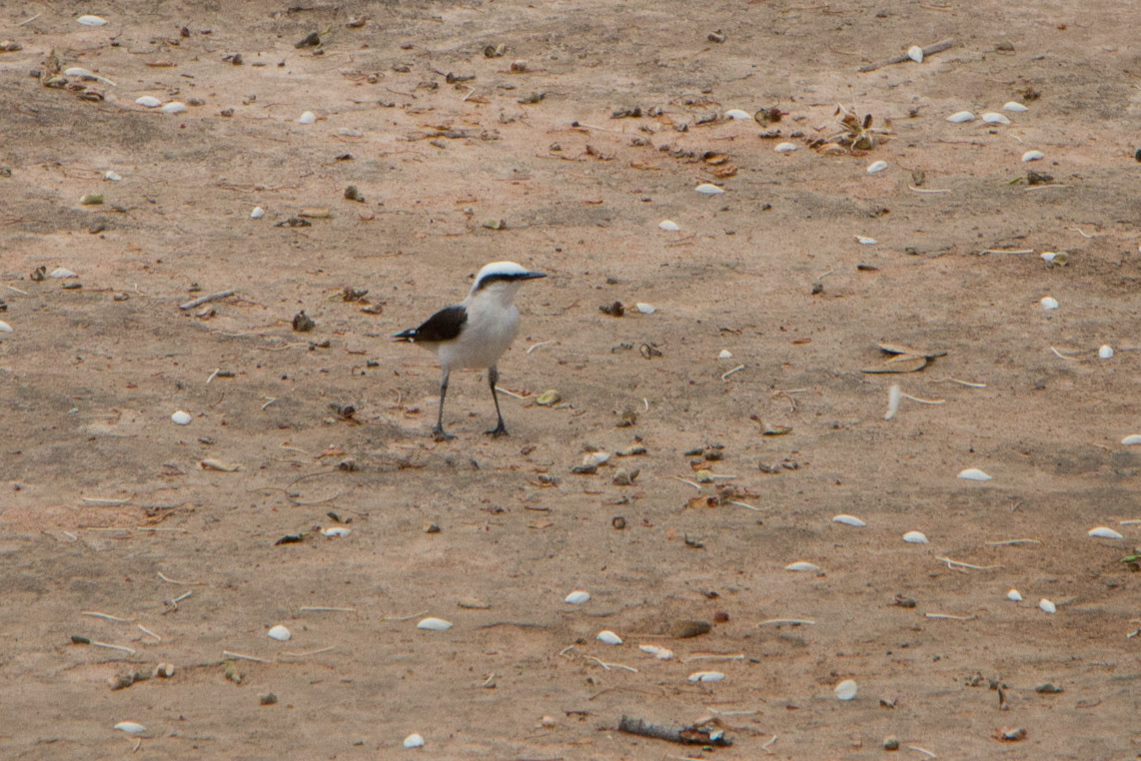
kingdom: Animalia
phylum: Chordata
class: Aves
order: Passeriformes
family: Tyrannidae
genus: Fluvicola
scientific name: Fluvicola nengeta
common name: Masked water tyrant
